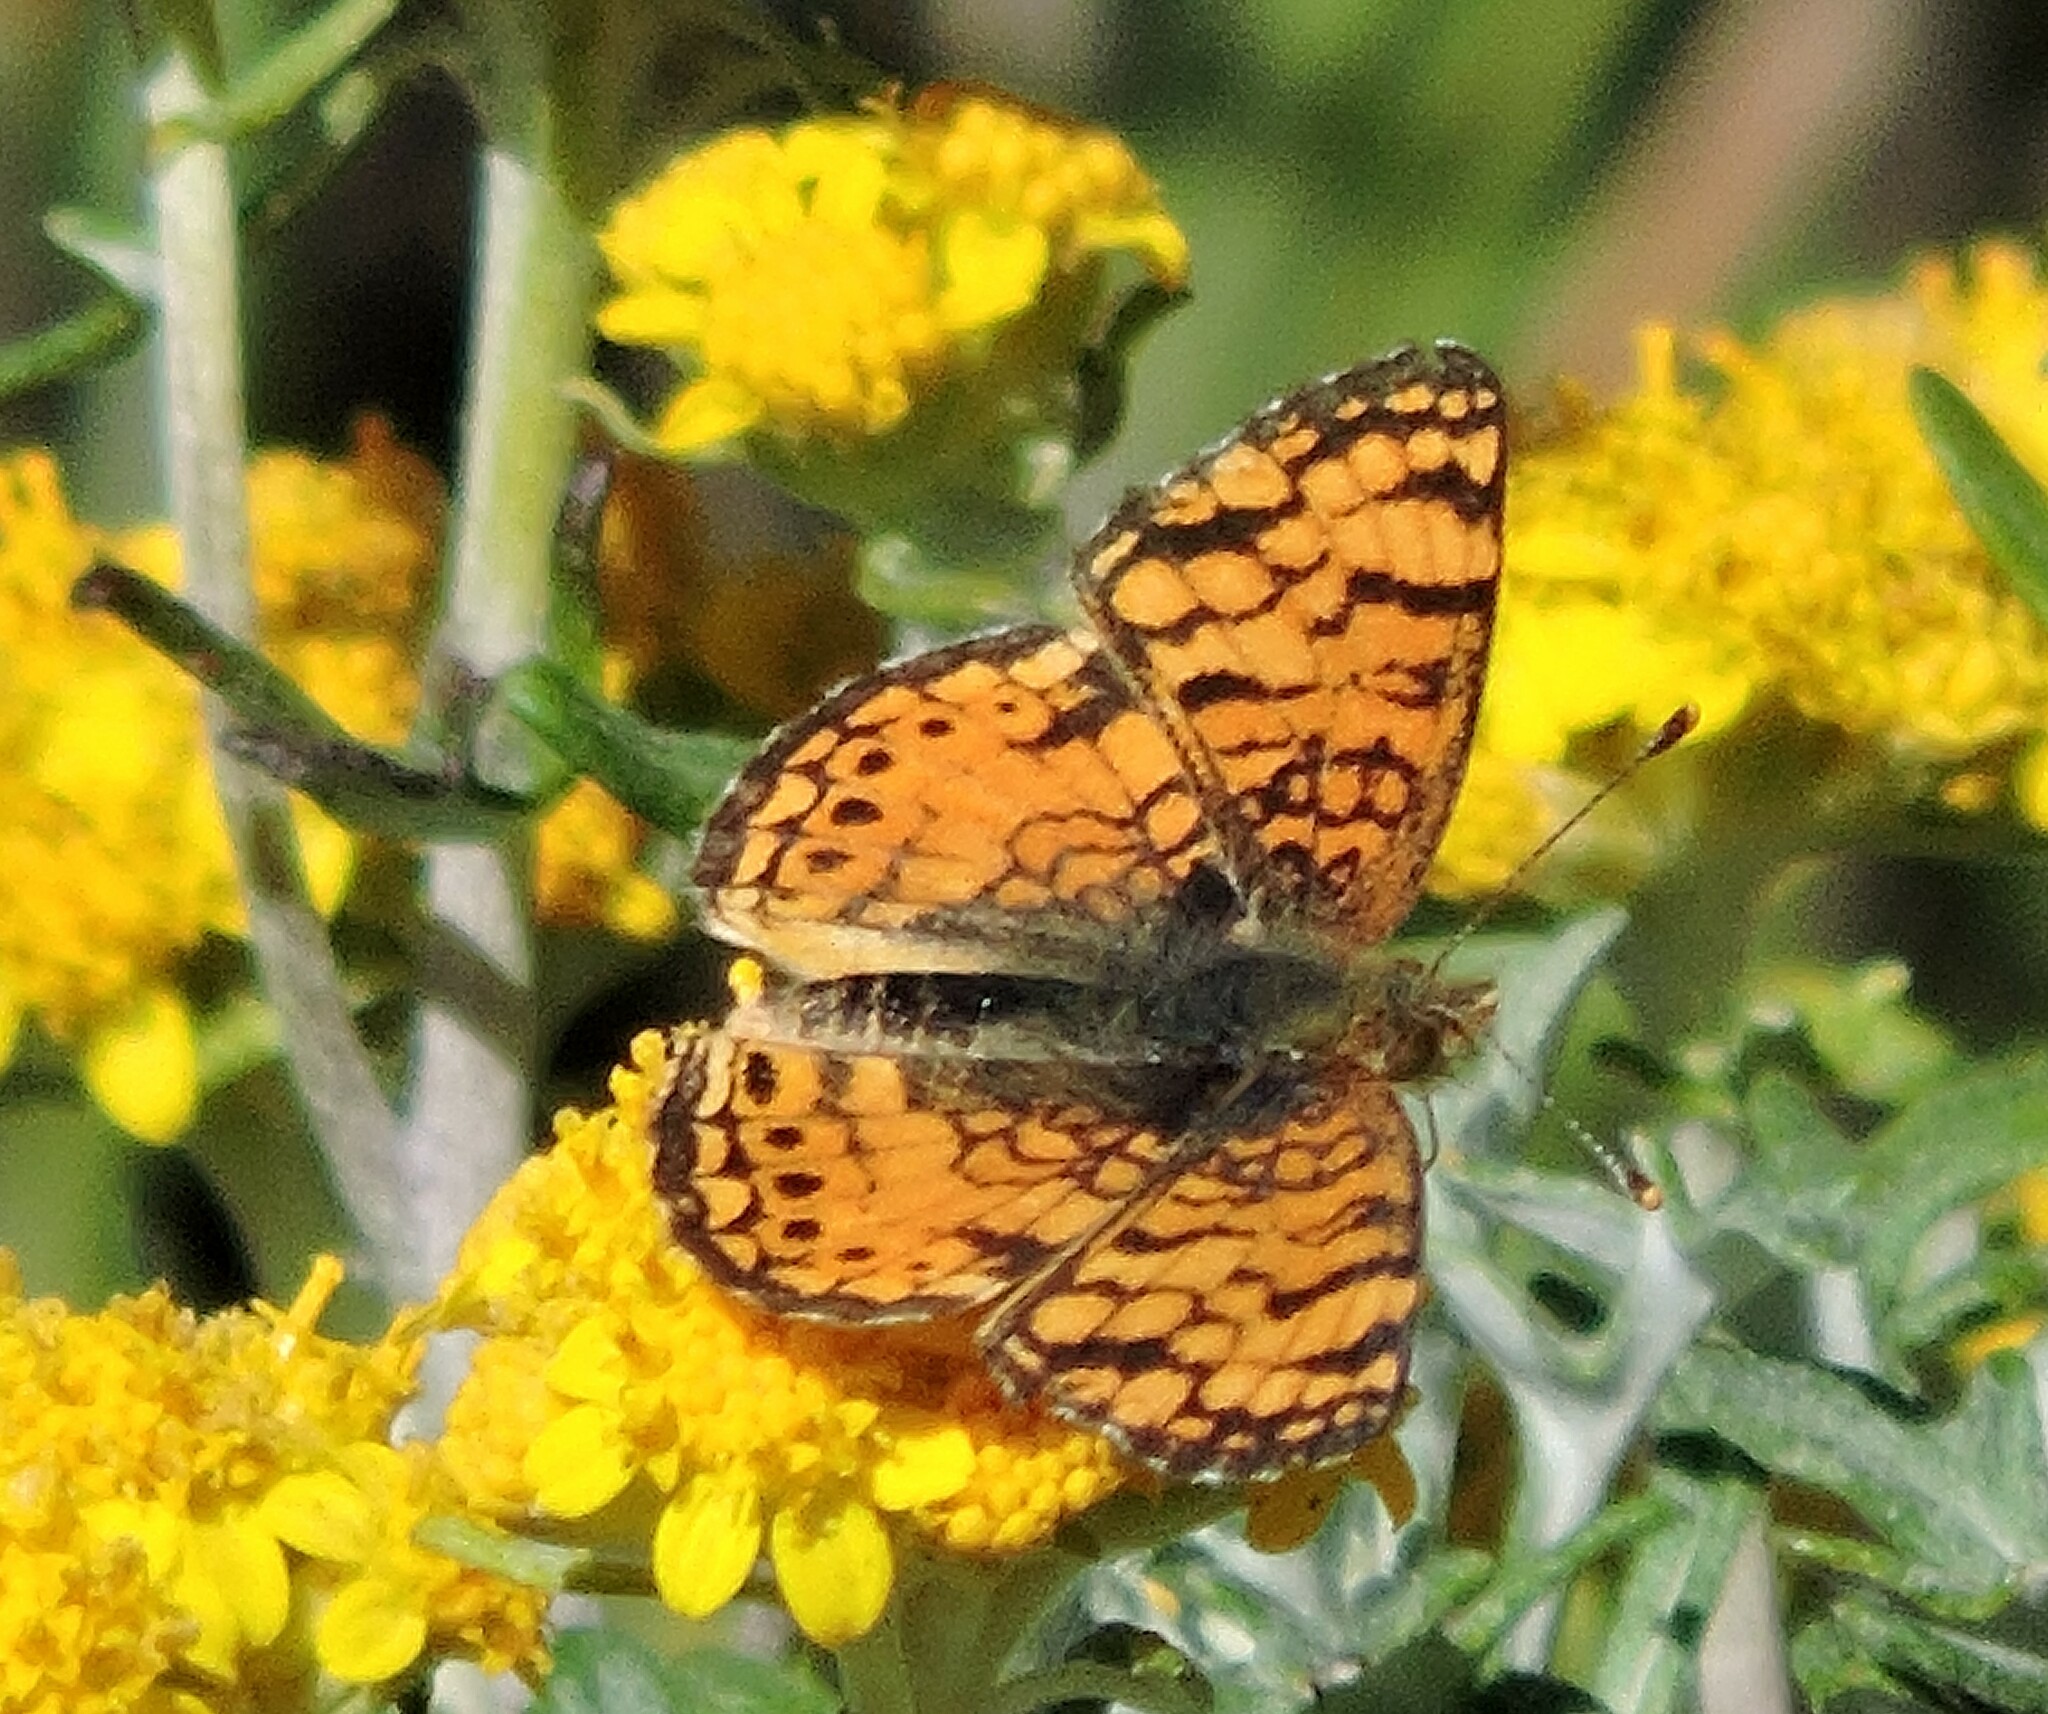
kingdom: Animalia
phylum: Arthropoda
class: Insecta
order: Lepidoptera
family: Nymphalidae
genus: Eresia
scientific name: Eresia aveyrona
